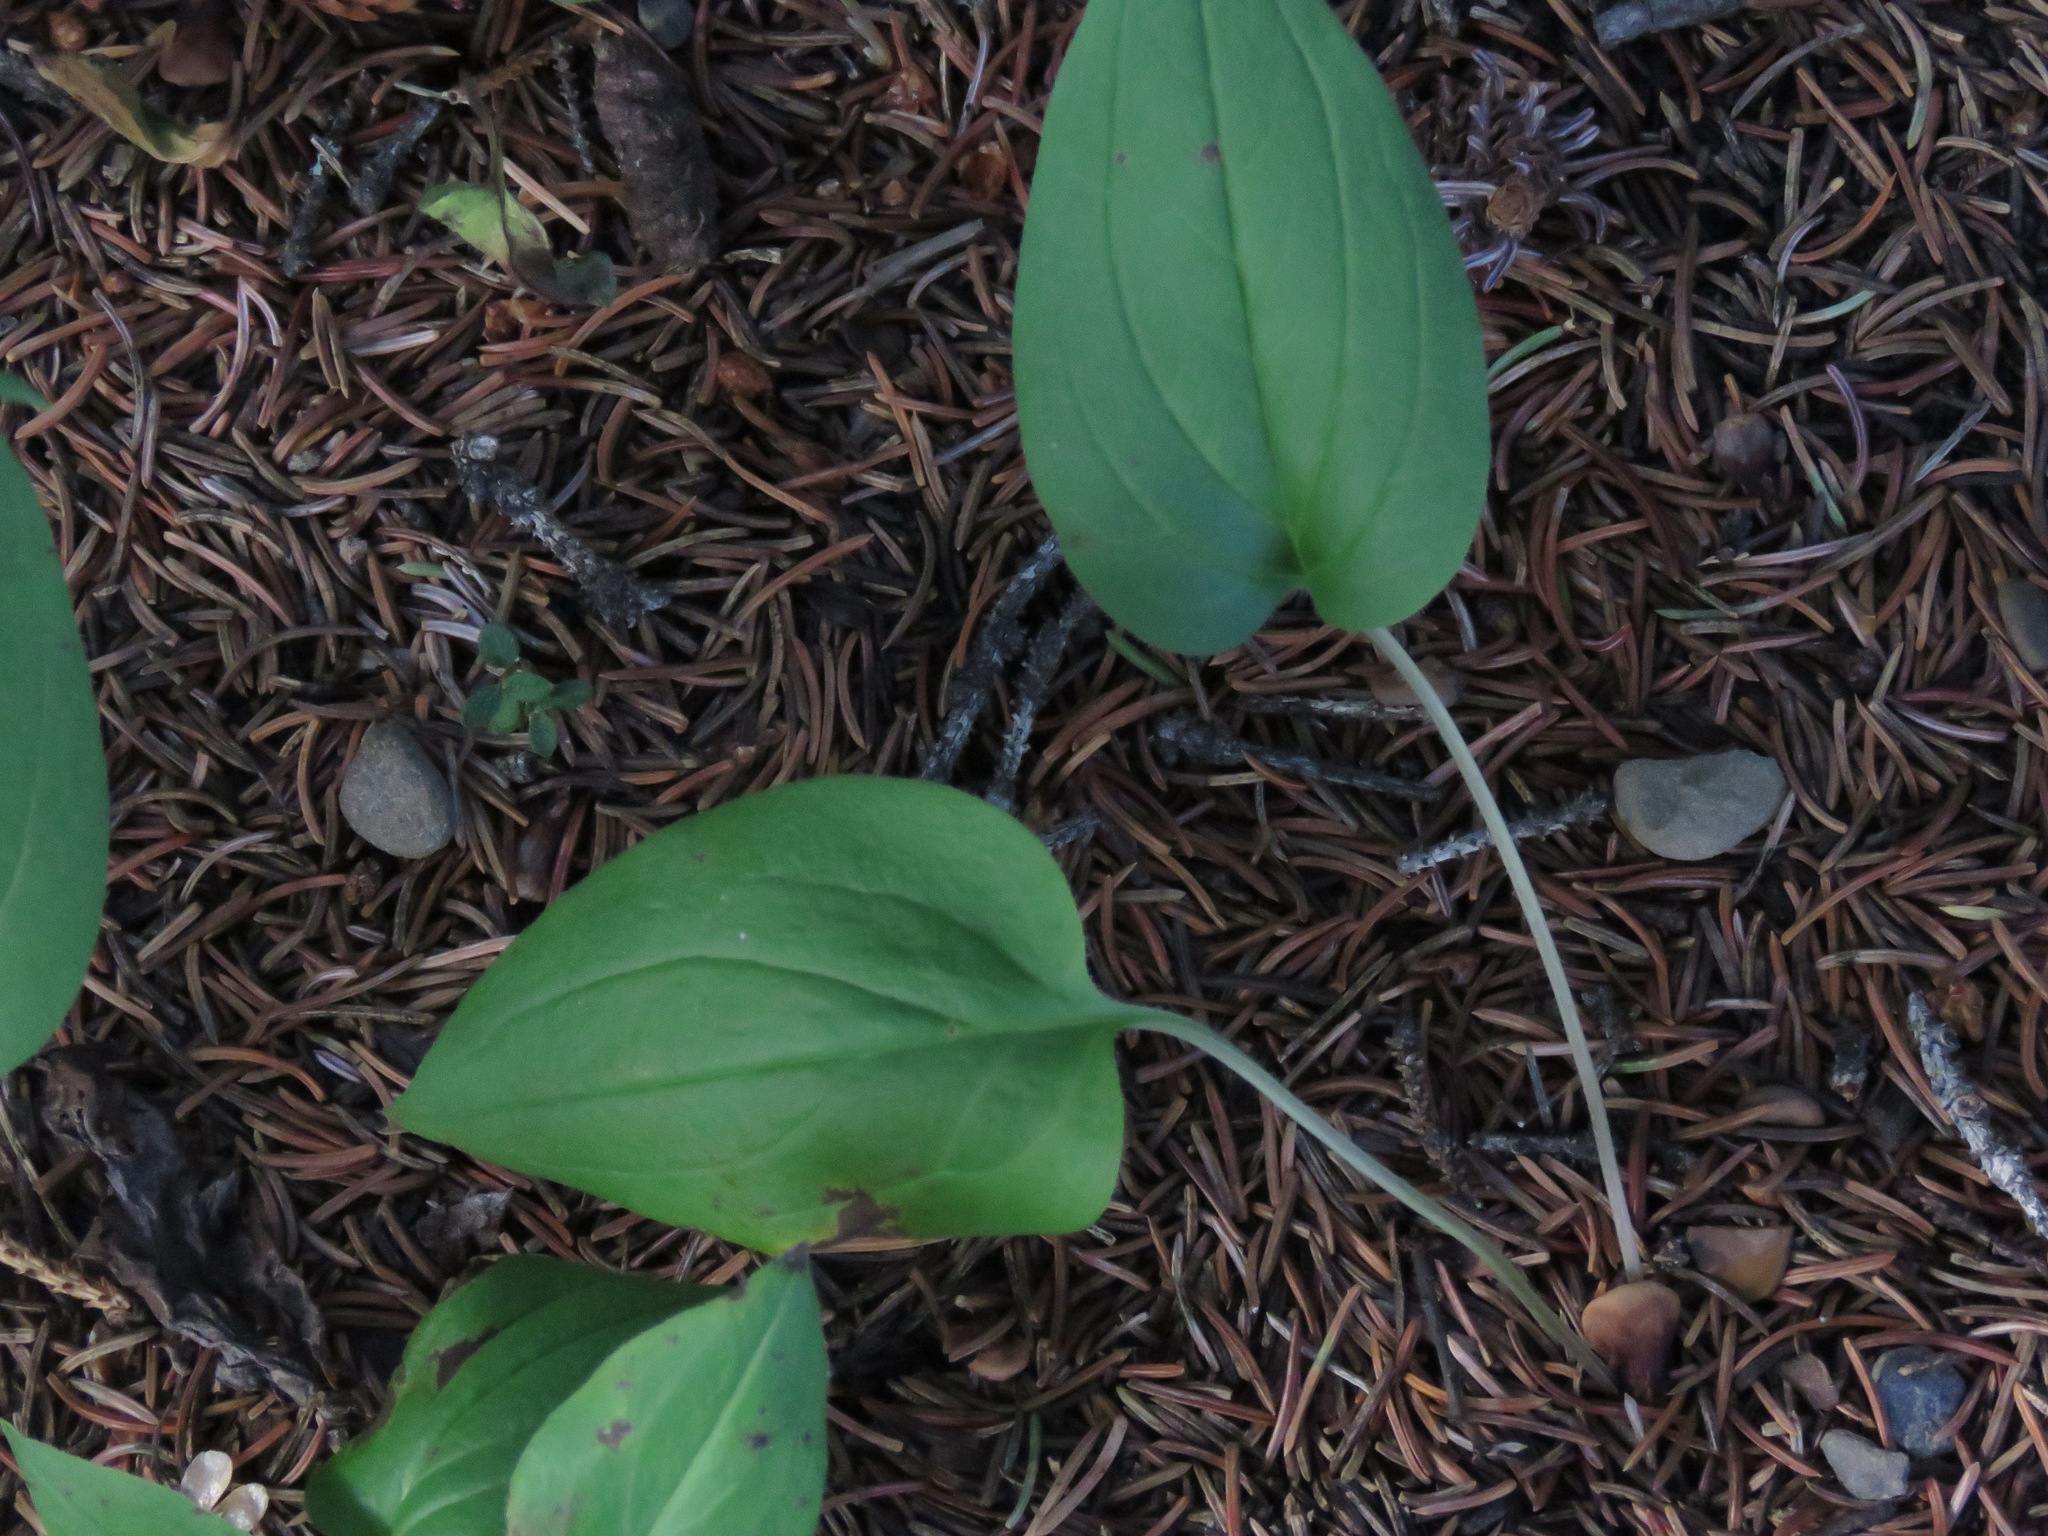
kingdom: Plantae
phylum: Tracheophyta
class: Magnoliopsida
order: Boraginales
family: Boraginaceae
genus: Mertensia
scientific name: Mertensia paniculata
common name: Panicled bluebells
